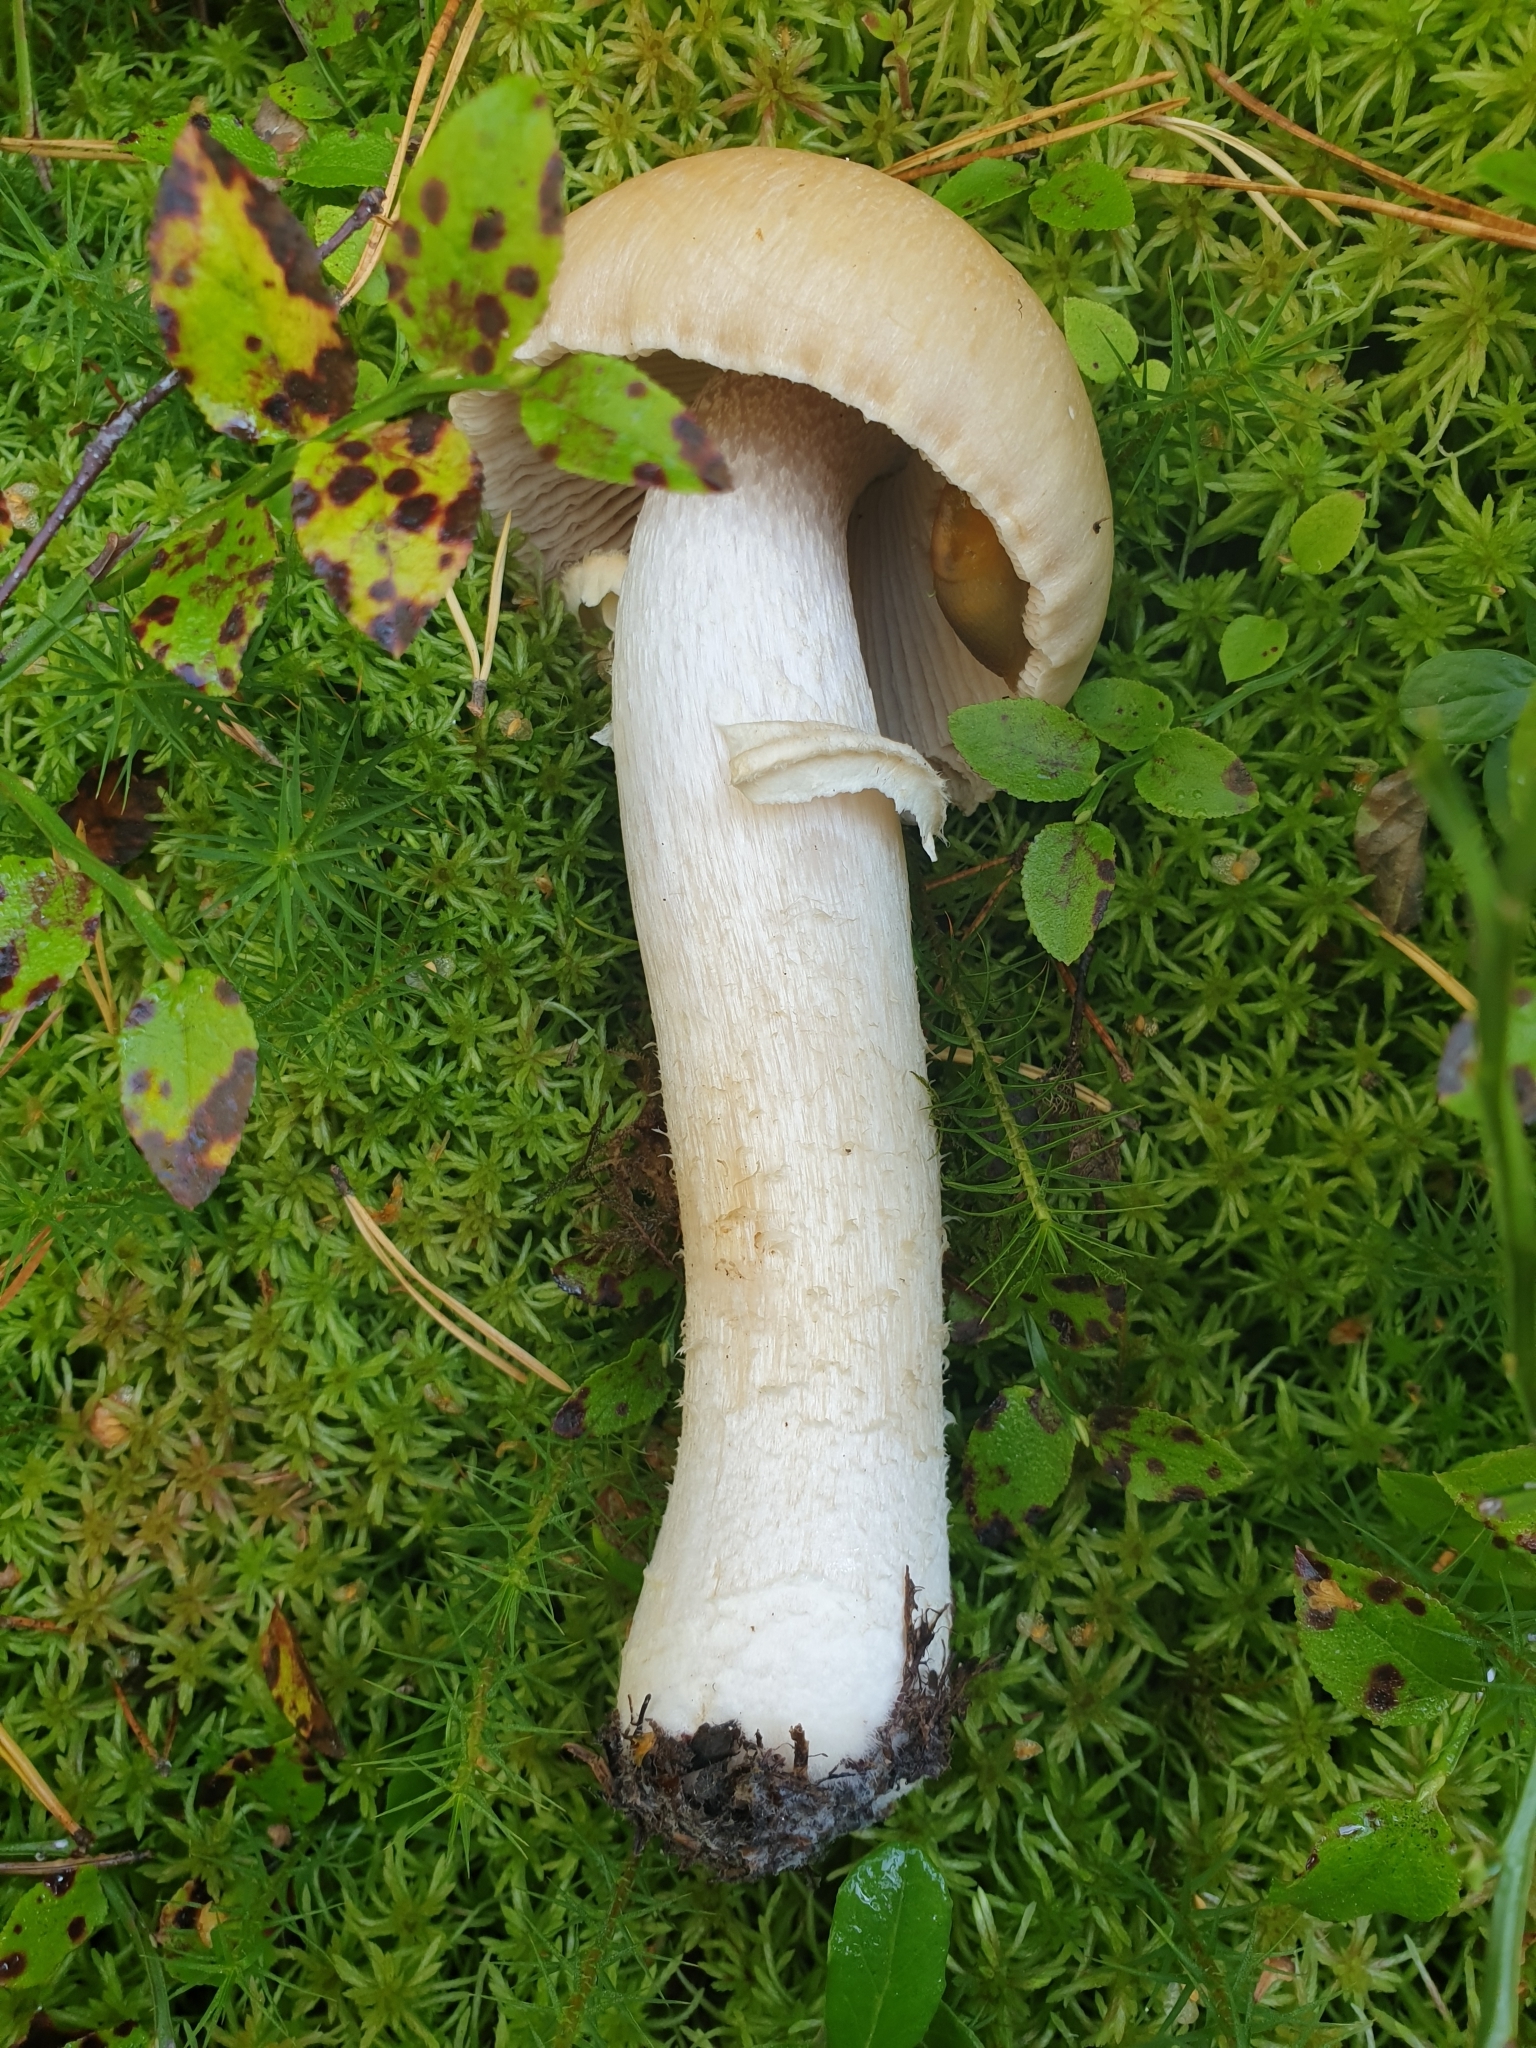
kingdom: Fungi
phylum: Basidiomycota
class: Agaricomycetes
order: Agaricales
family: Cortinariaceae
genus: Cortinarius
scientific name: Cortinarius caperatus
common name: The gypsy
